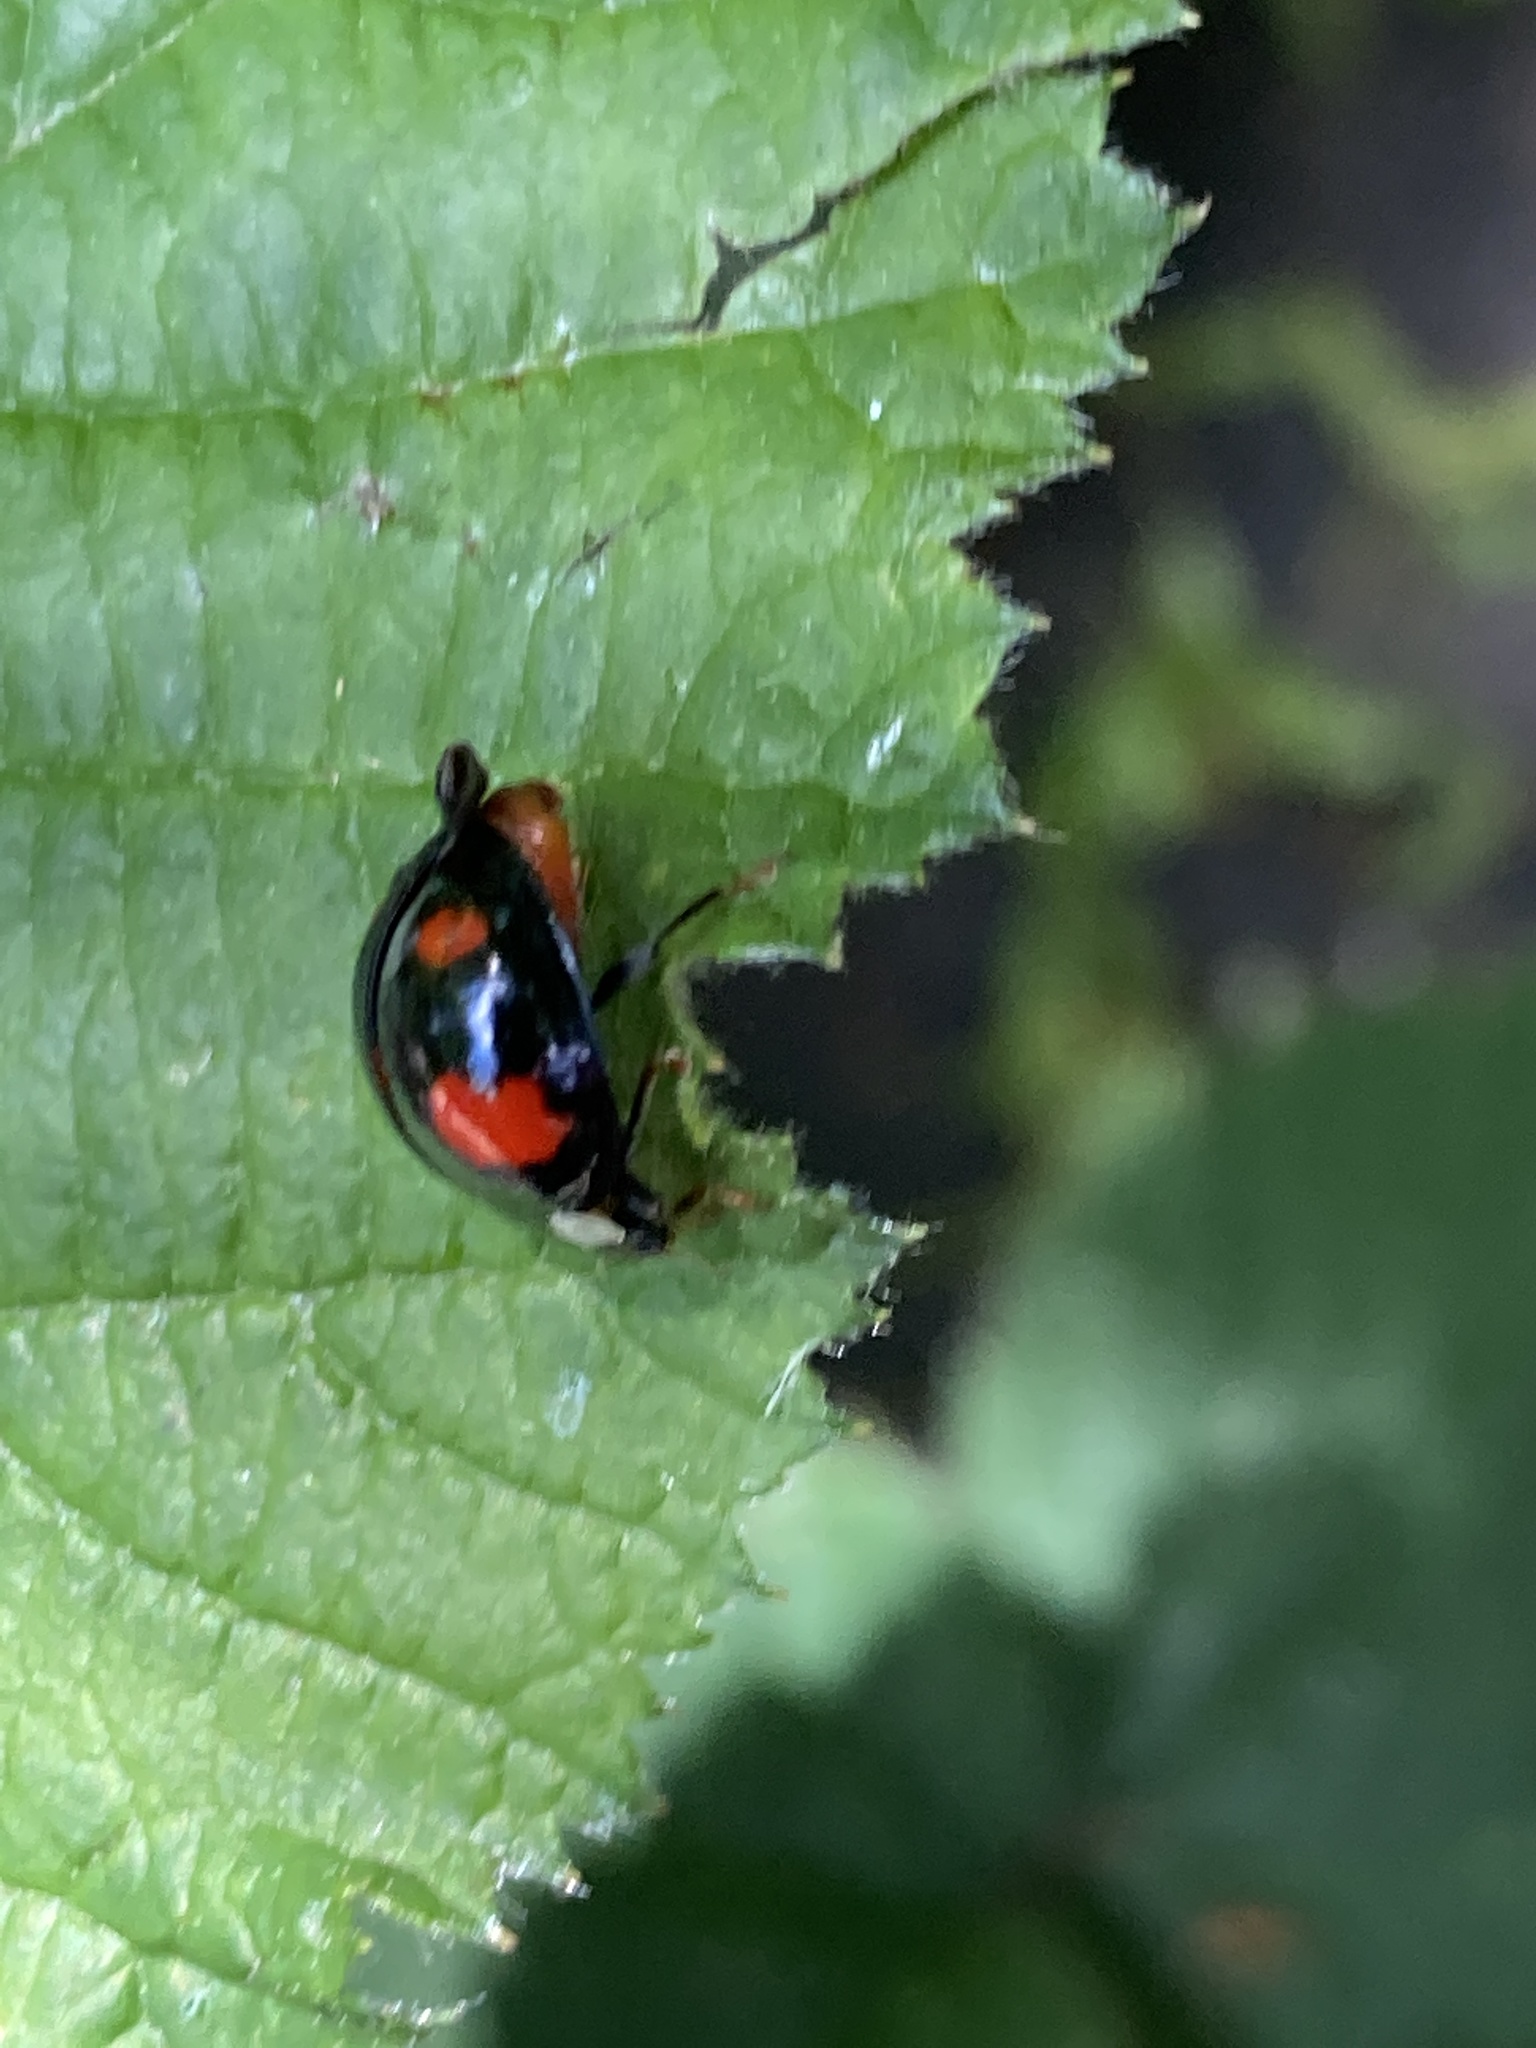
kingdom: Animalia
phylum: Arthropoda
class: Insecta
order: Coleoptera
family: Coccinellidae
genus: Harmonia
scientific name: Harmonia axyridis
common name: Harlequin ladybird
